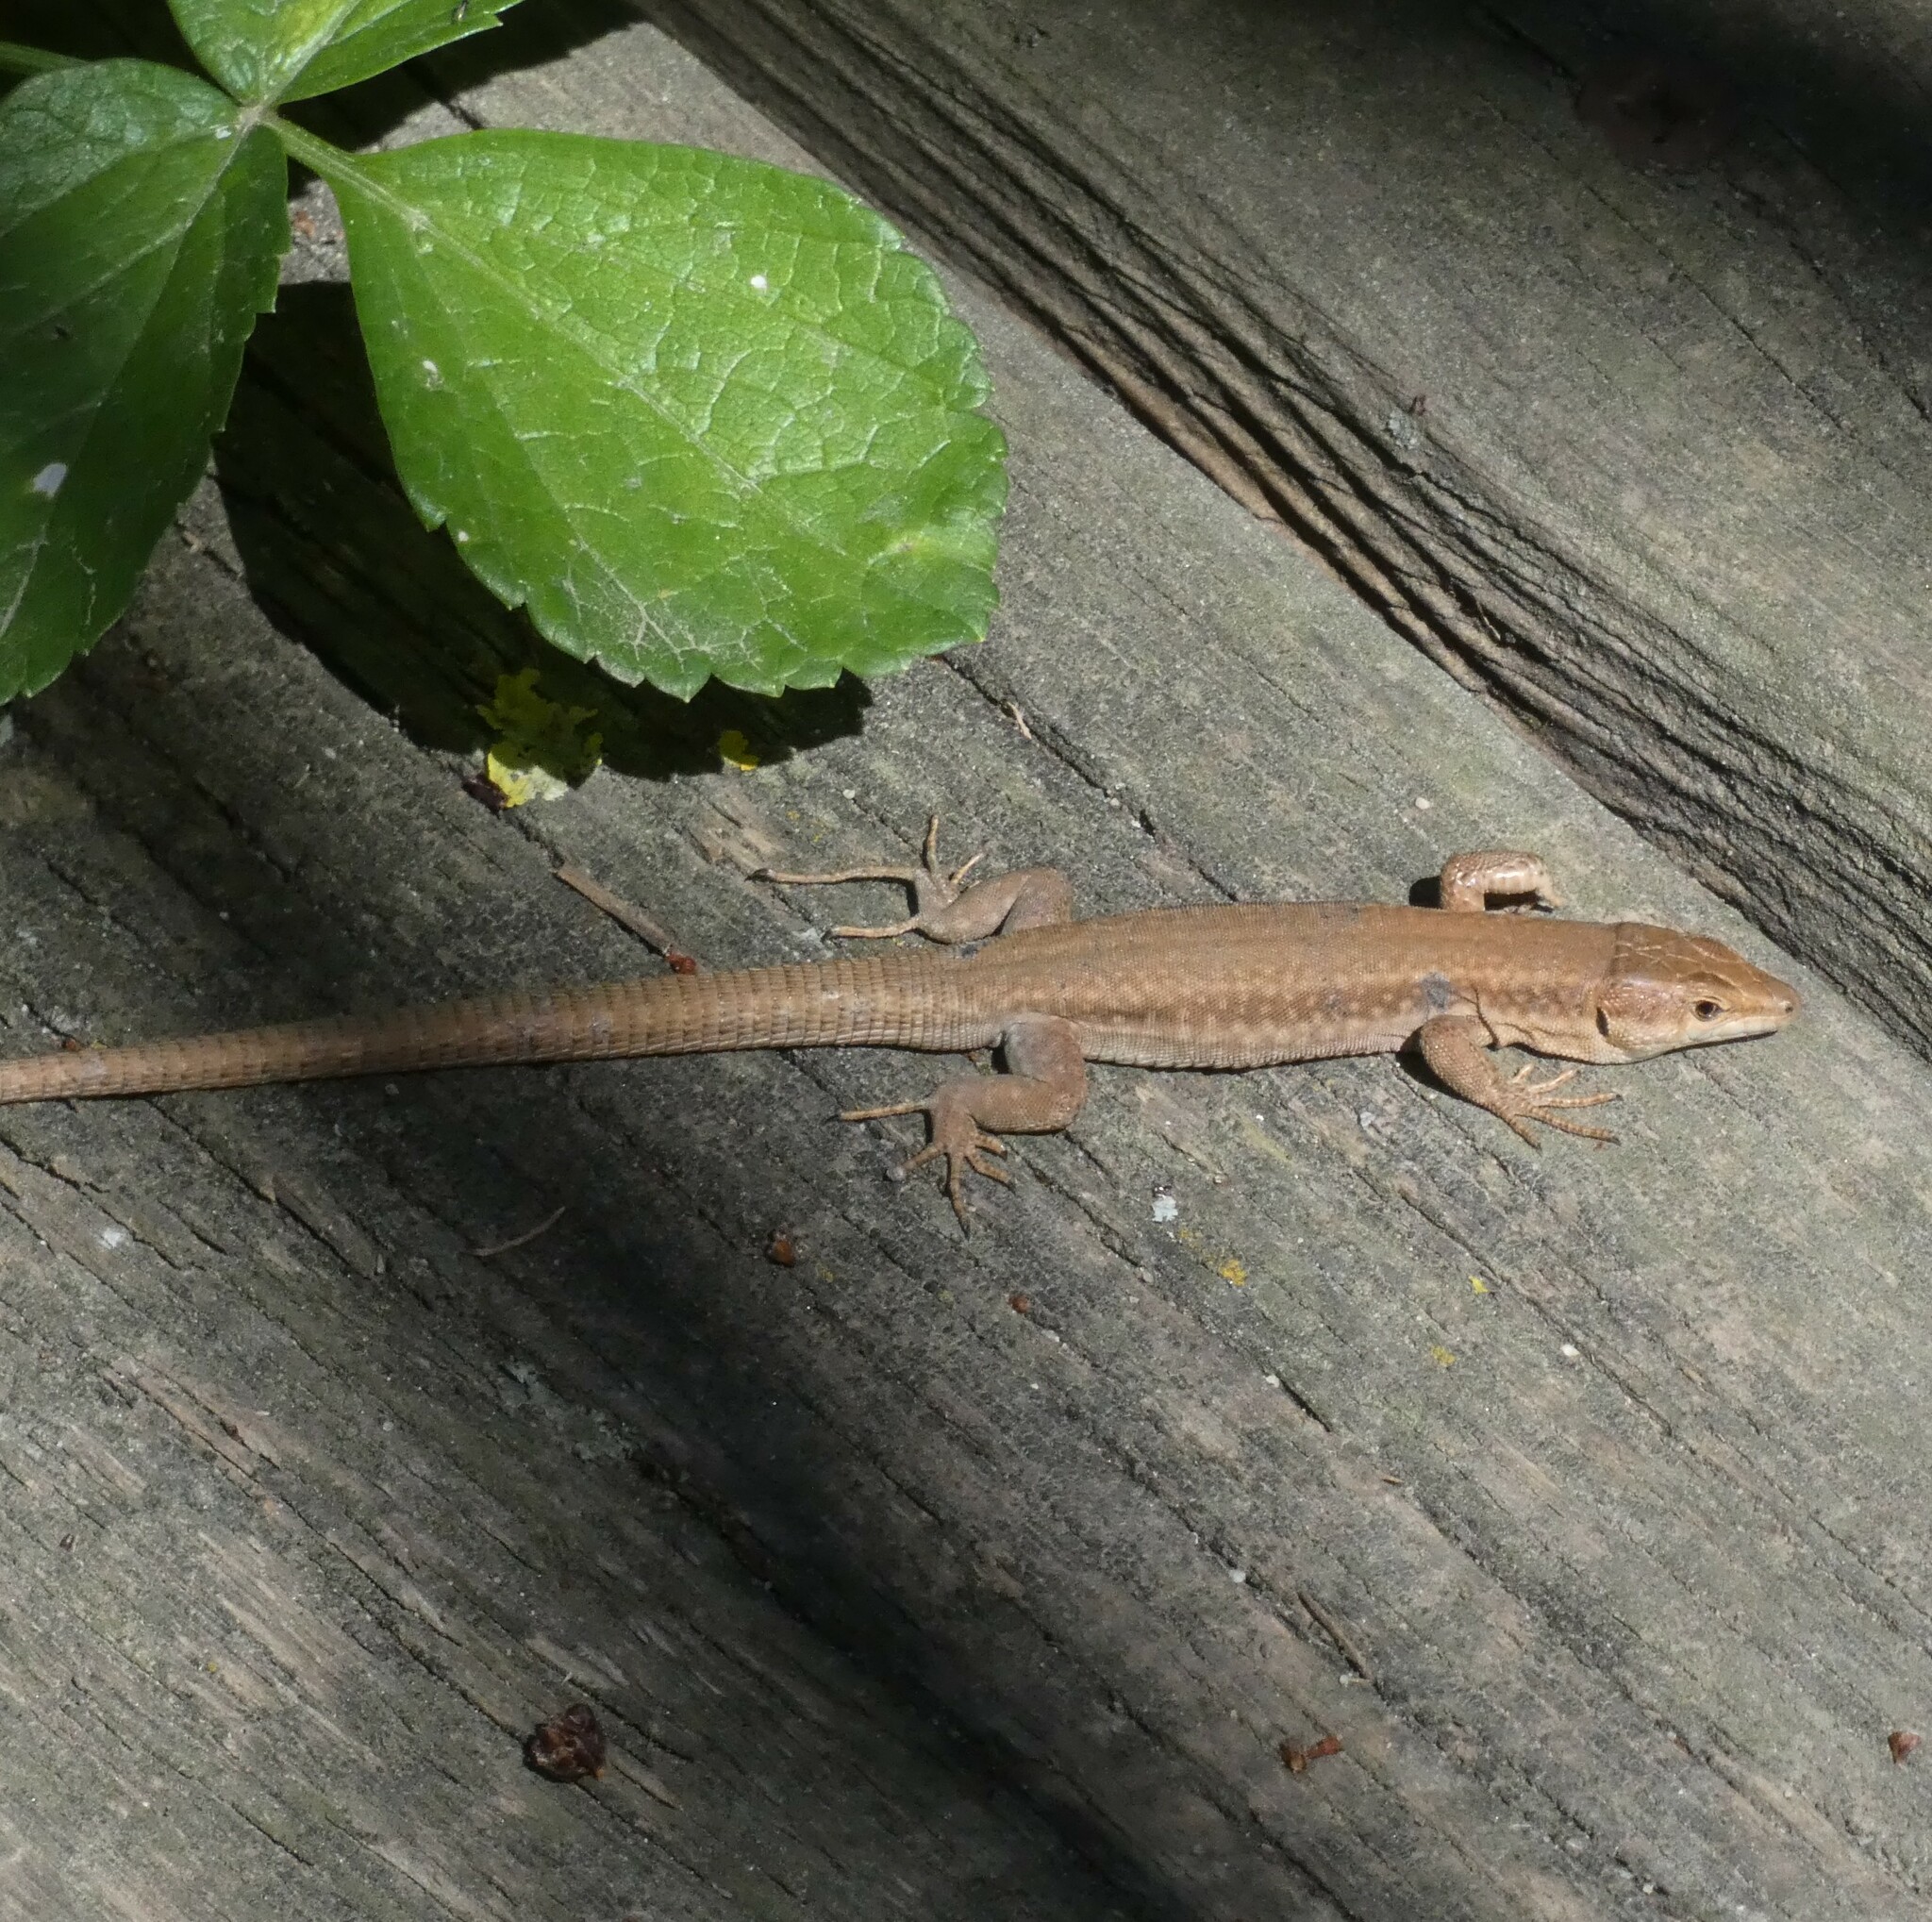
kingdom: Animalia
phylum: Chordata
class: Squamata
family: Lacertidae
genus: Podarcis
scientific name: Podarcis liolepis
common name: Catalonian wall lizard
